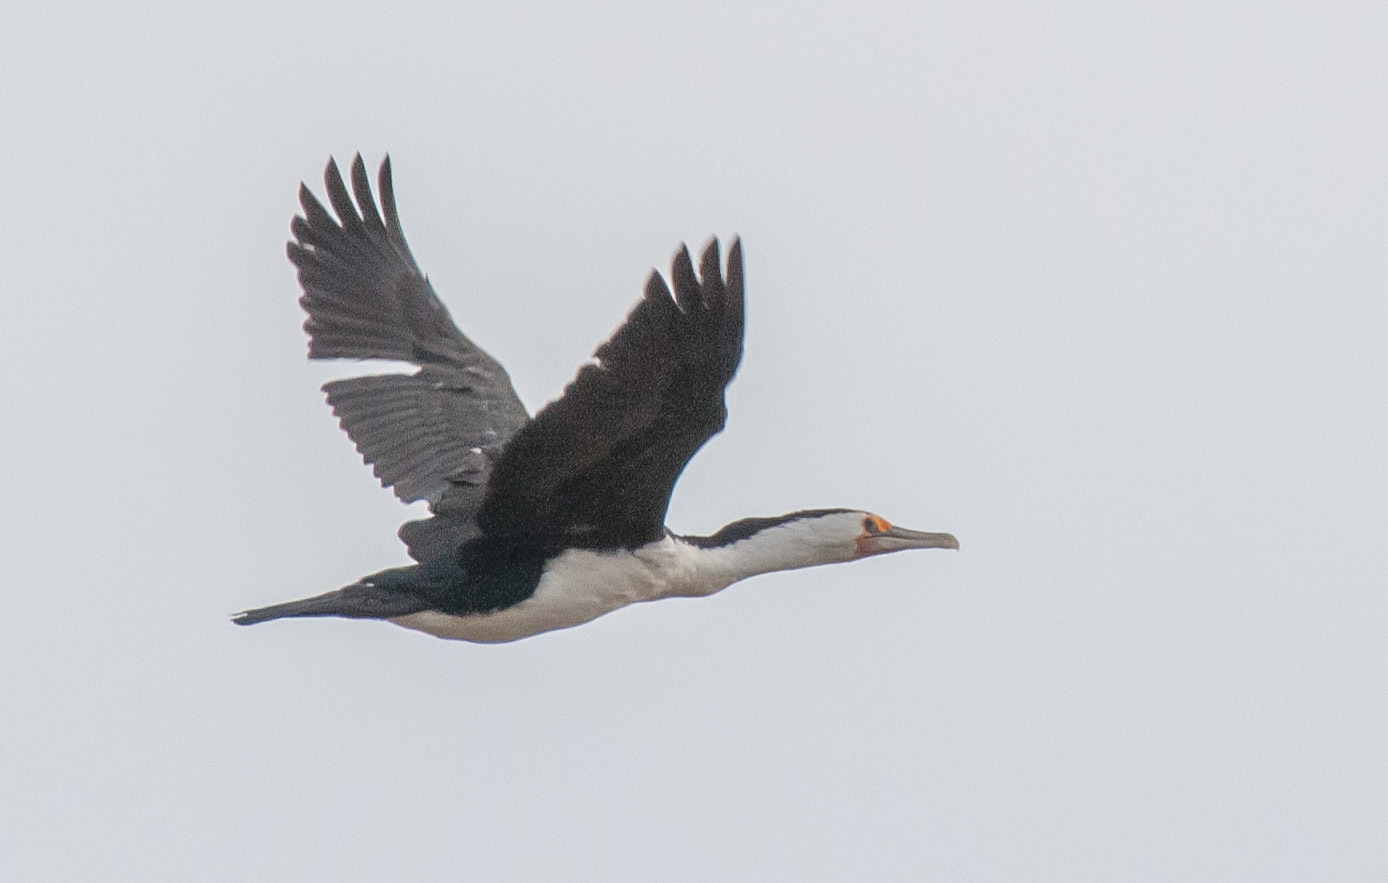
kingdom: Animalia
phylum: Chordata
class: Aves
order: Suliformes
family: Phalacrocoracidae
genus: Phalacrocorax
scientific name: Phalacrocorax varius
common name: Pied cormorant
